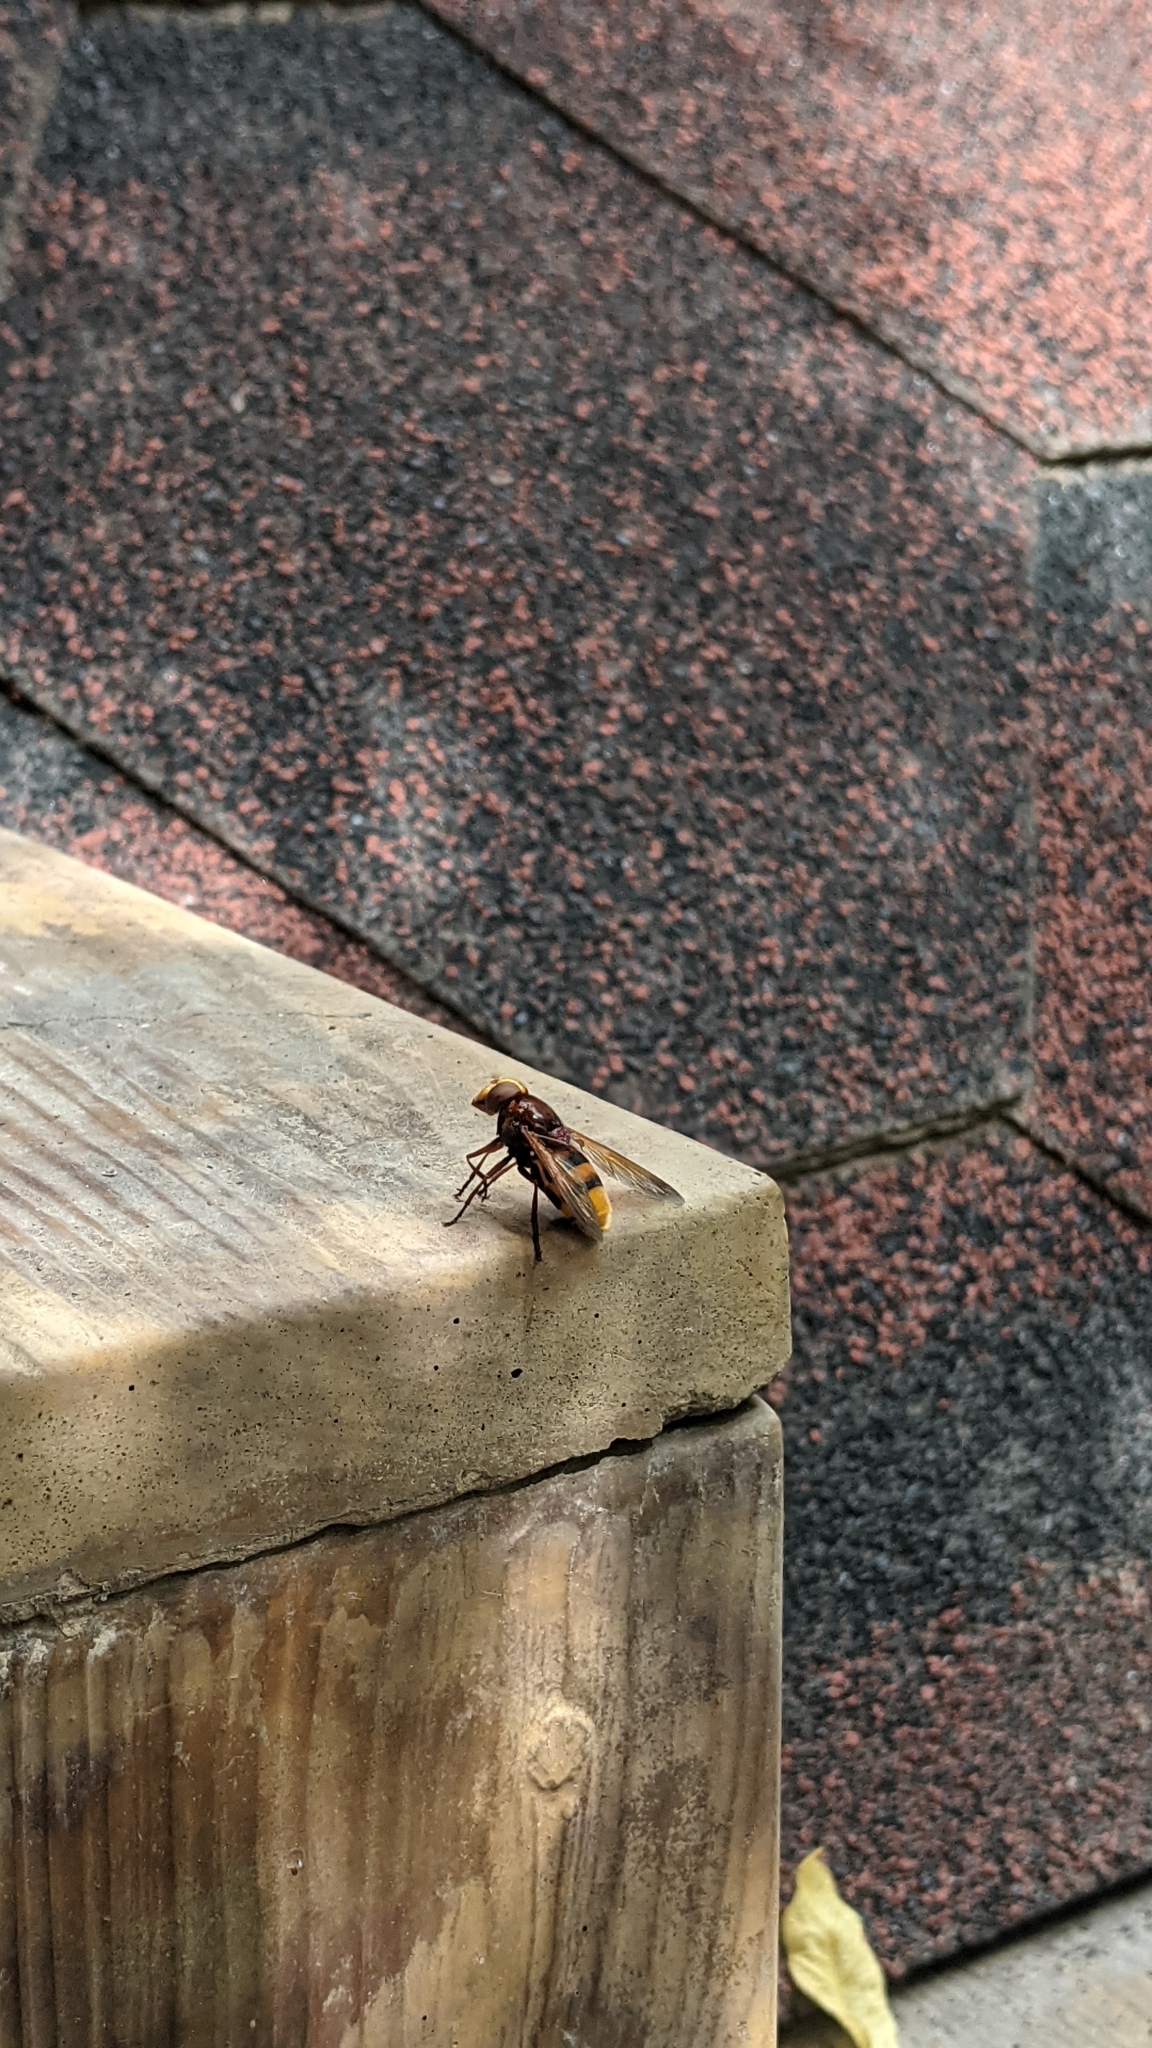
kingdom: Animalia
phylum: Arthropoda
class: Insecta
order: Diptera
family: Syrphidae
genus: Volucella
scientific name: Volucella zonaria
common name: Hornet hoverfly
